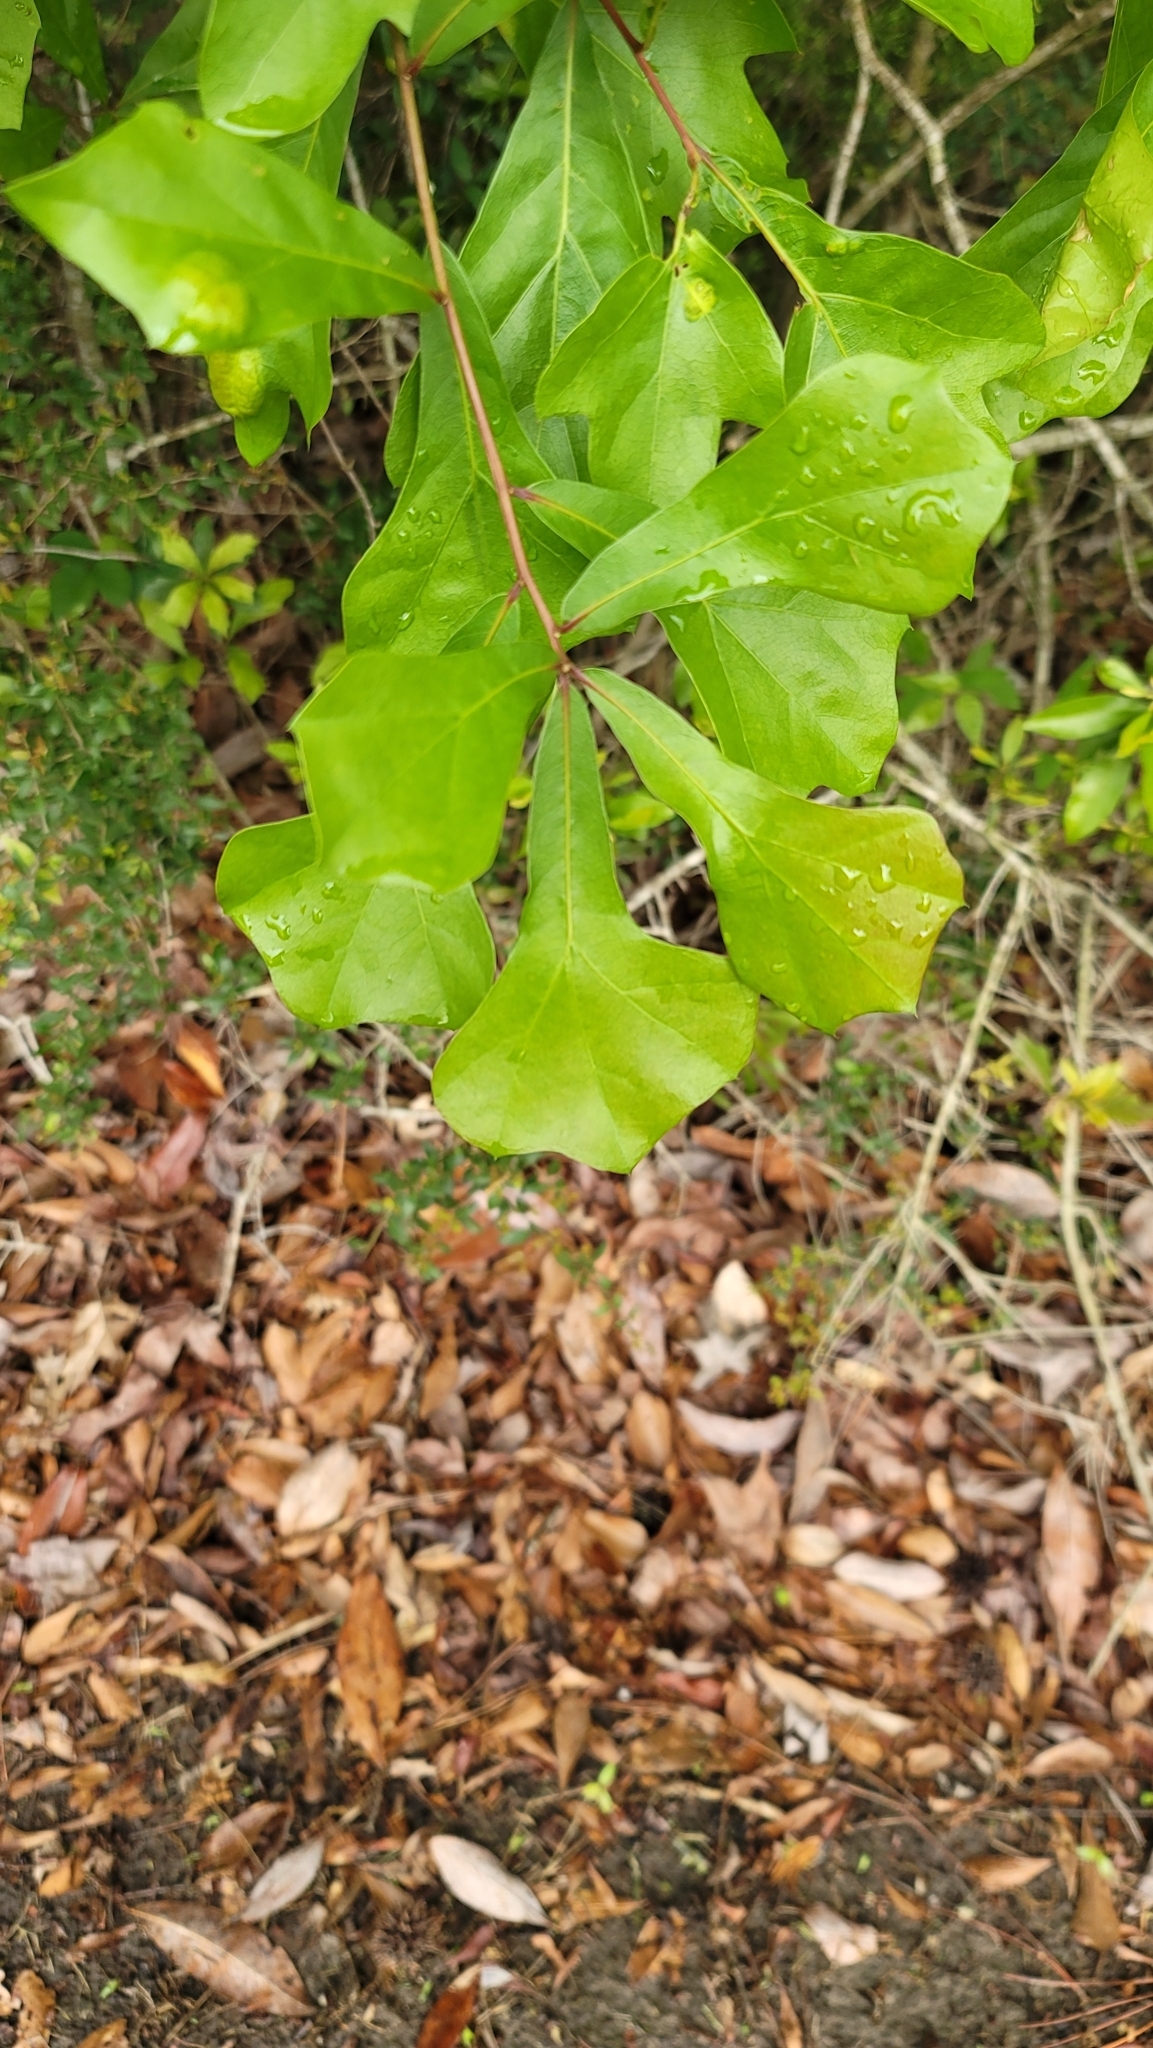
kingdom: Plantae
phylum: Tracheophyta
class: Magnoliopsida
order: Fagales
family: Fagaceae
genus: Quercus
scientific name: Quercus nigra
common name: Water oak
